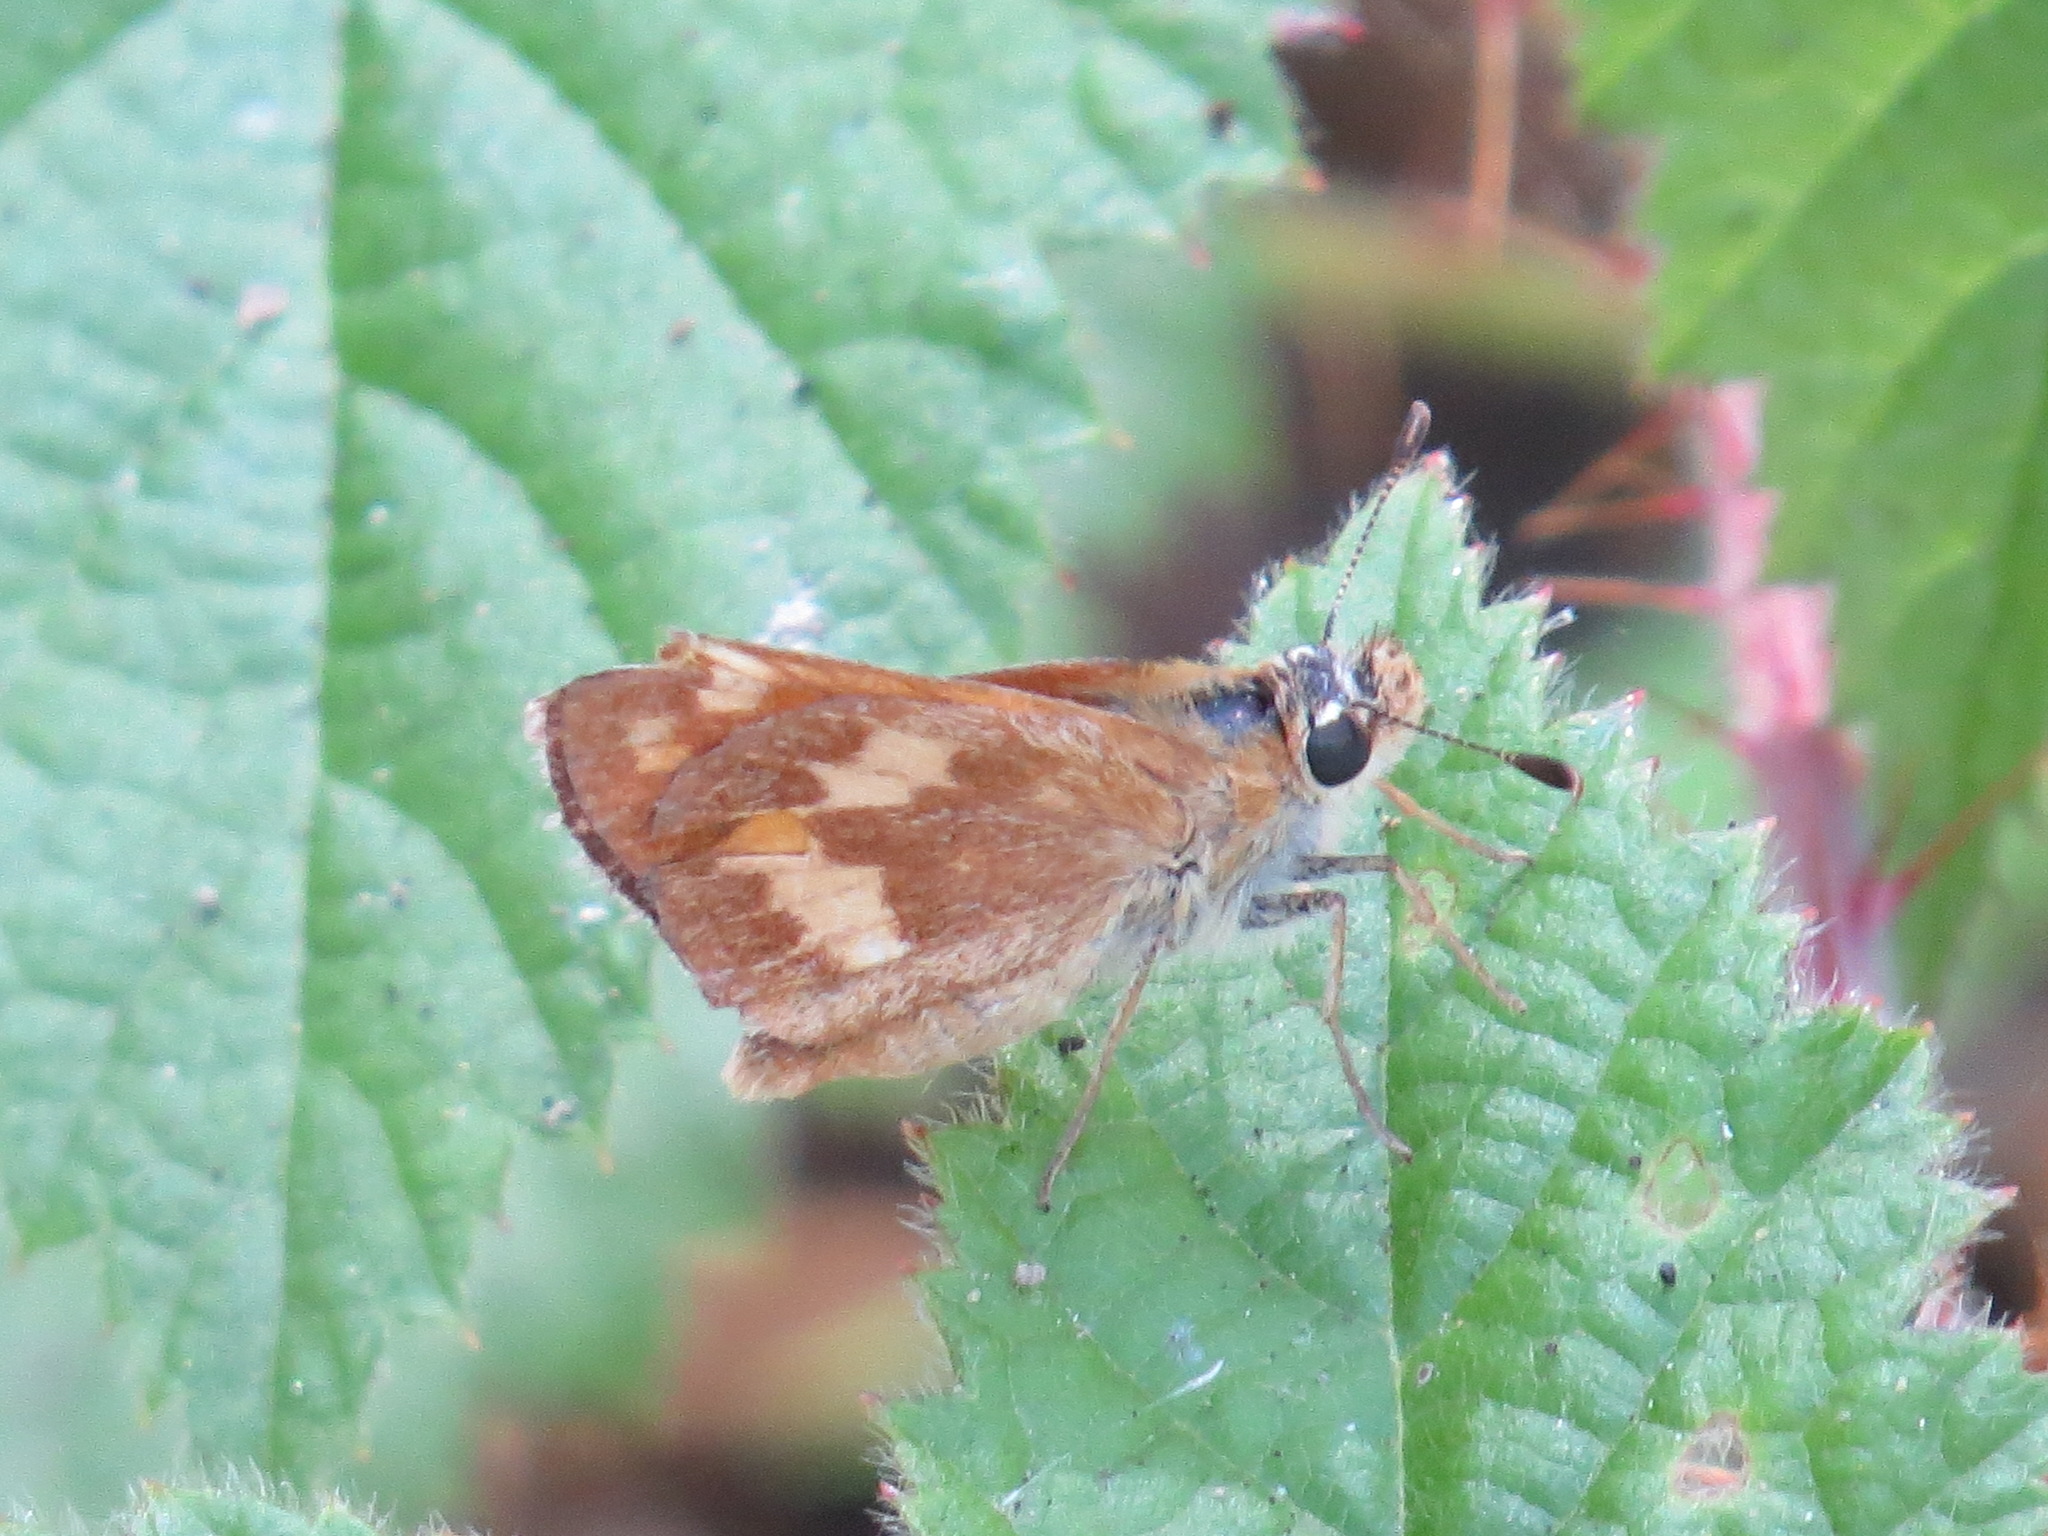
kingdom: Animalia
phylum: Arthropoda
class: Insecta
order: Lepidoptera
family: Hesperiidae
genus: Ochlodes
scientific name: Ochlodes sylvanoides
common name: Woodland skipper
